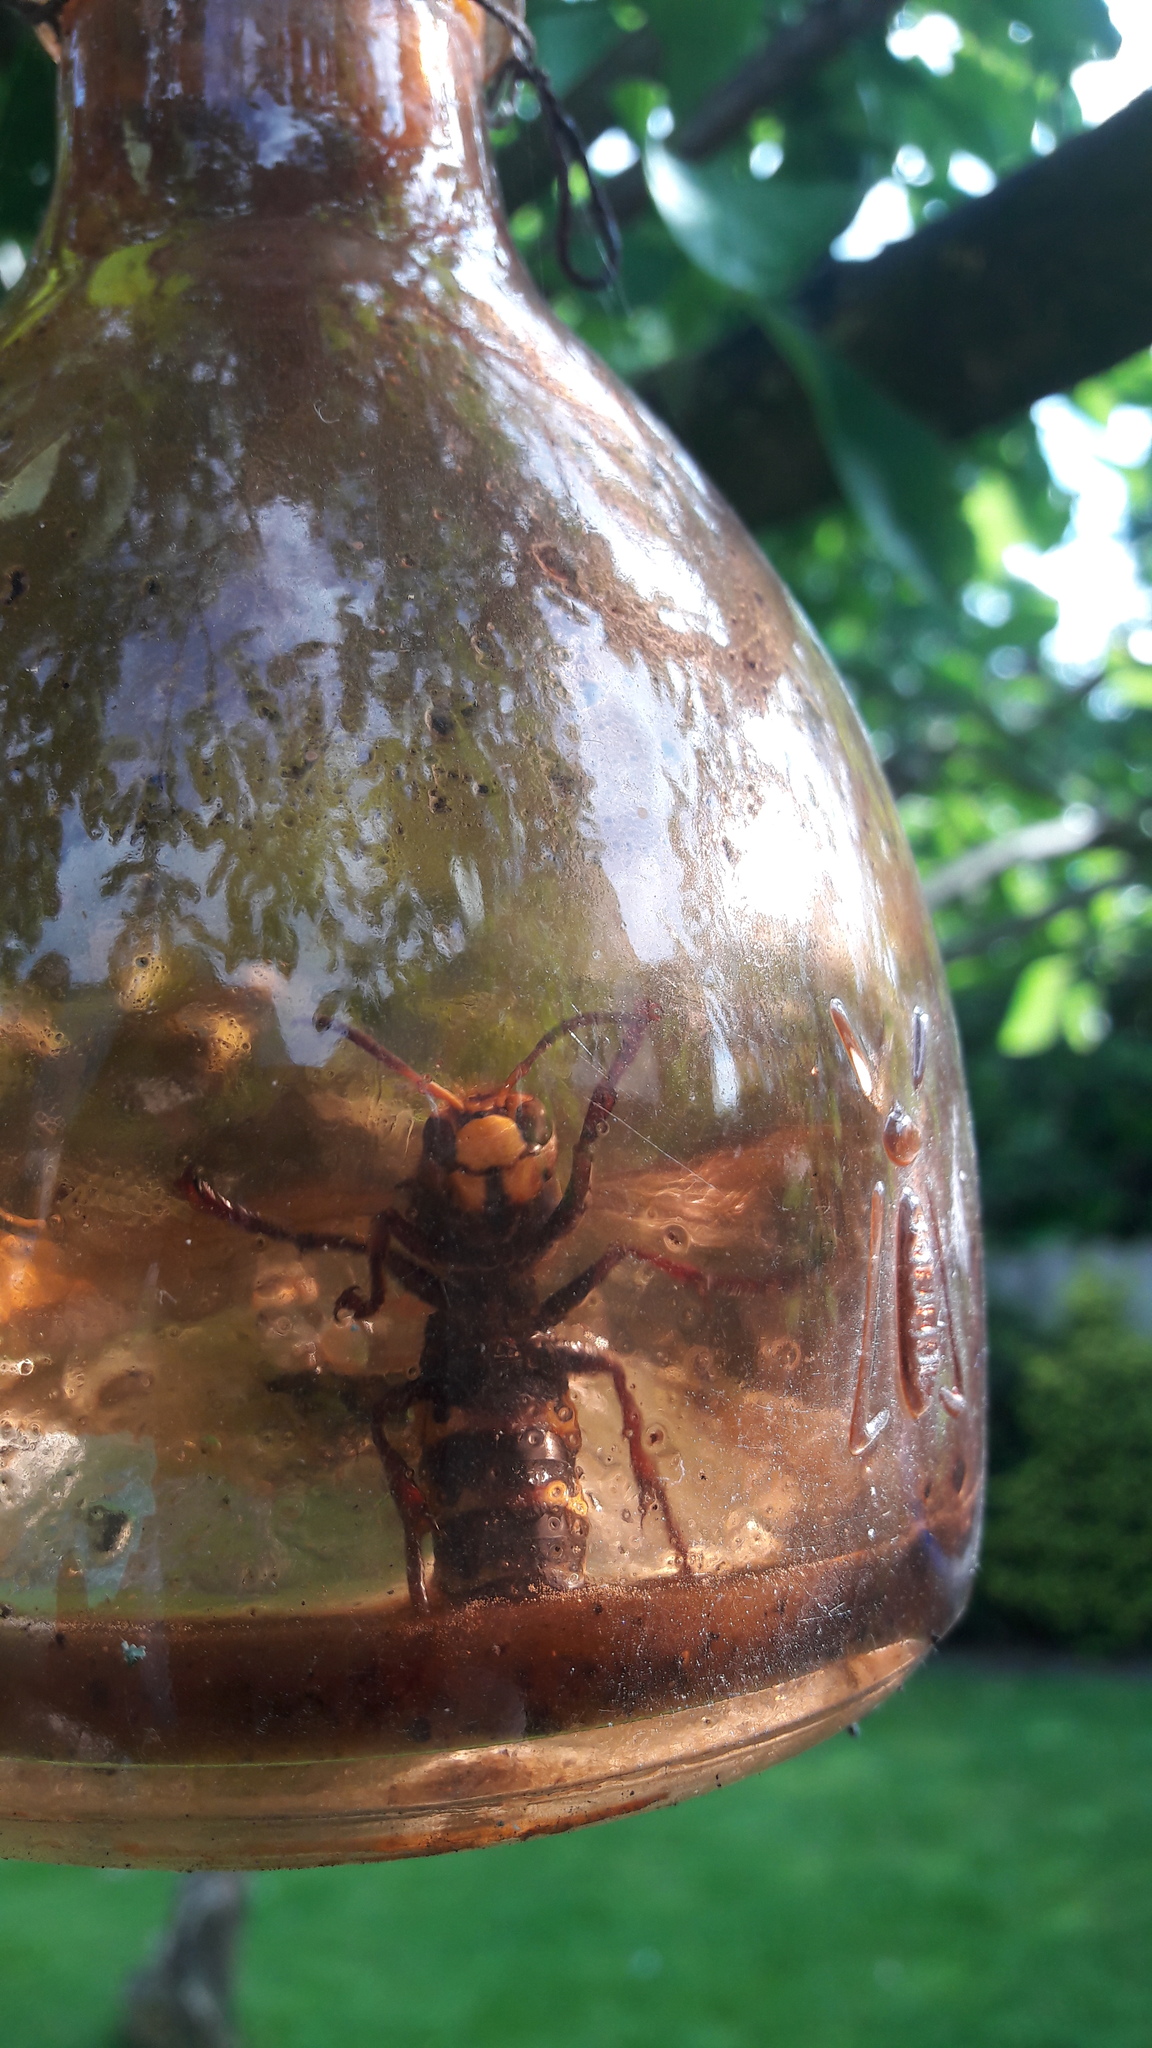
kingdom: Animalia
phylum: Arthropoda
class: Insecta
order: Hymenoptera
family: Vespidae
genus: Vespa
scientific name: Vespa crabro
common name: Hornet
